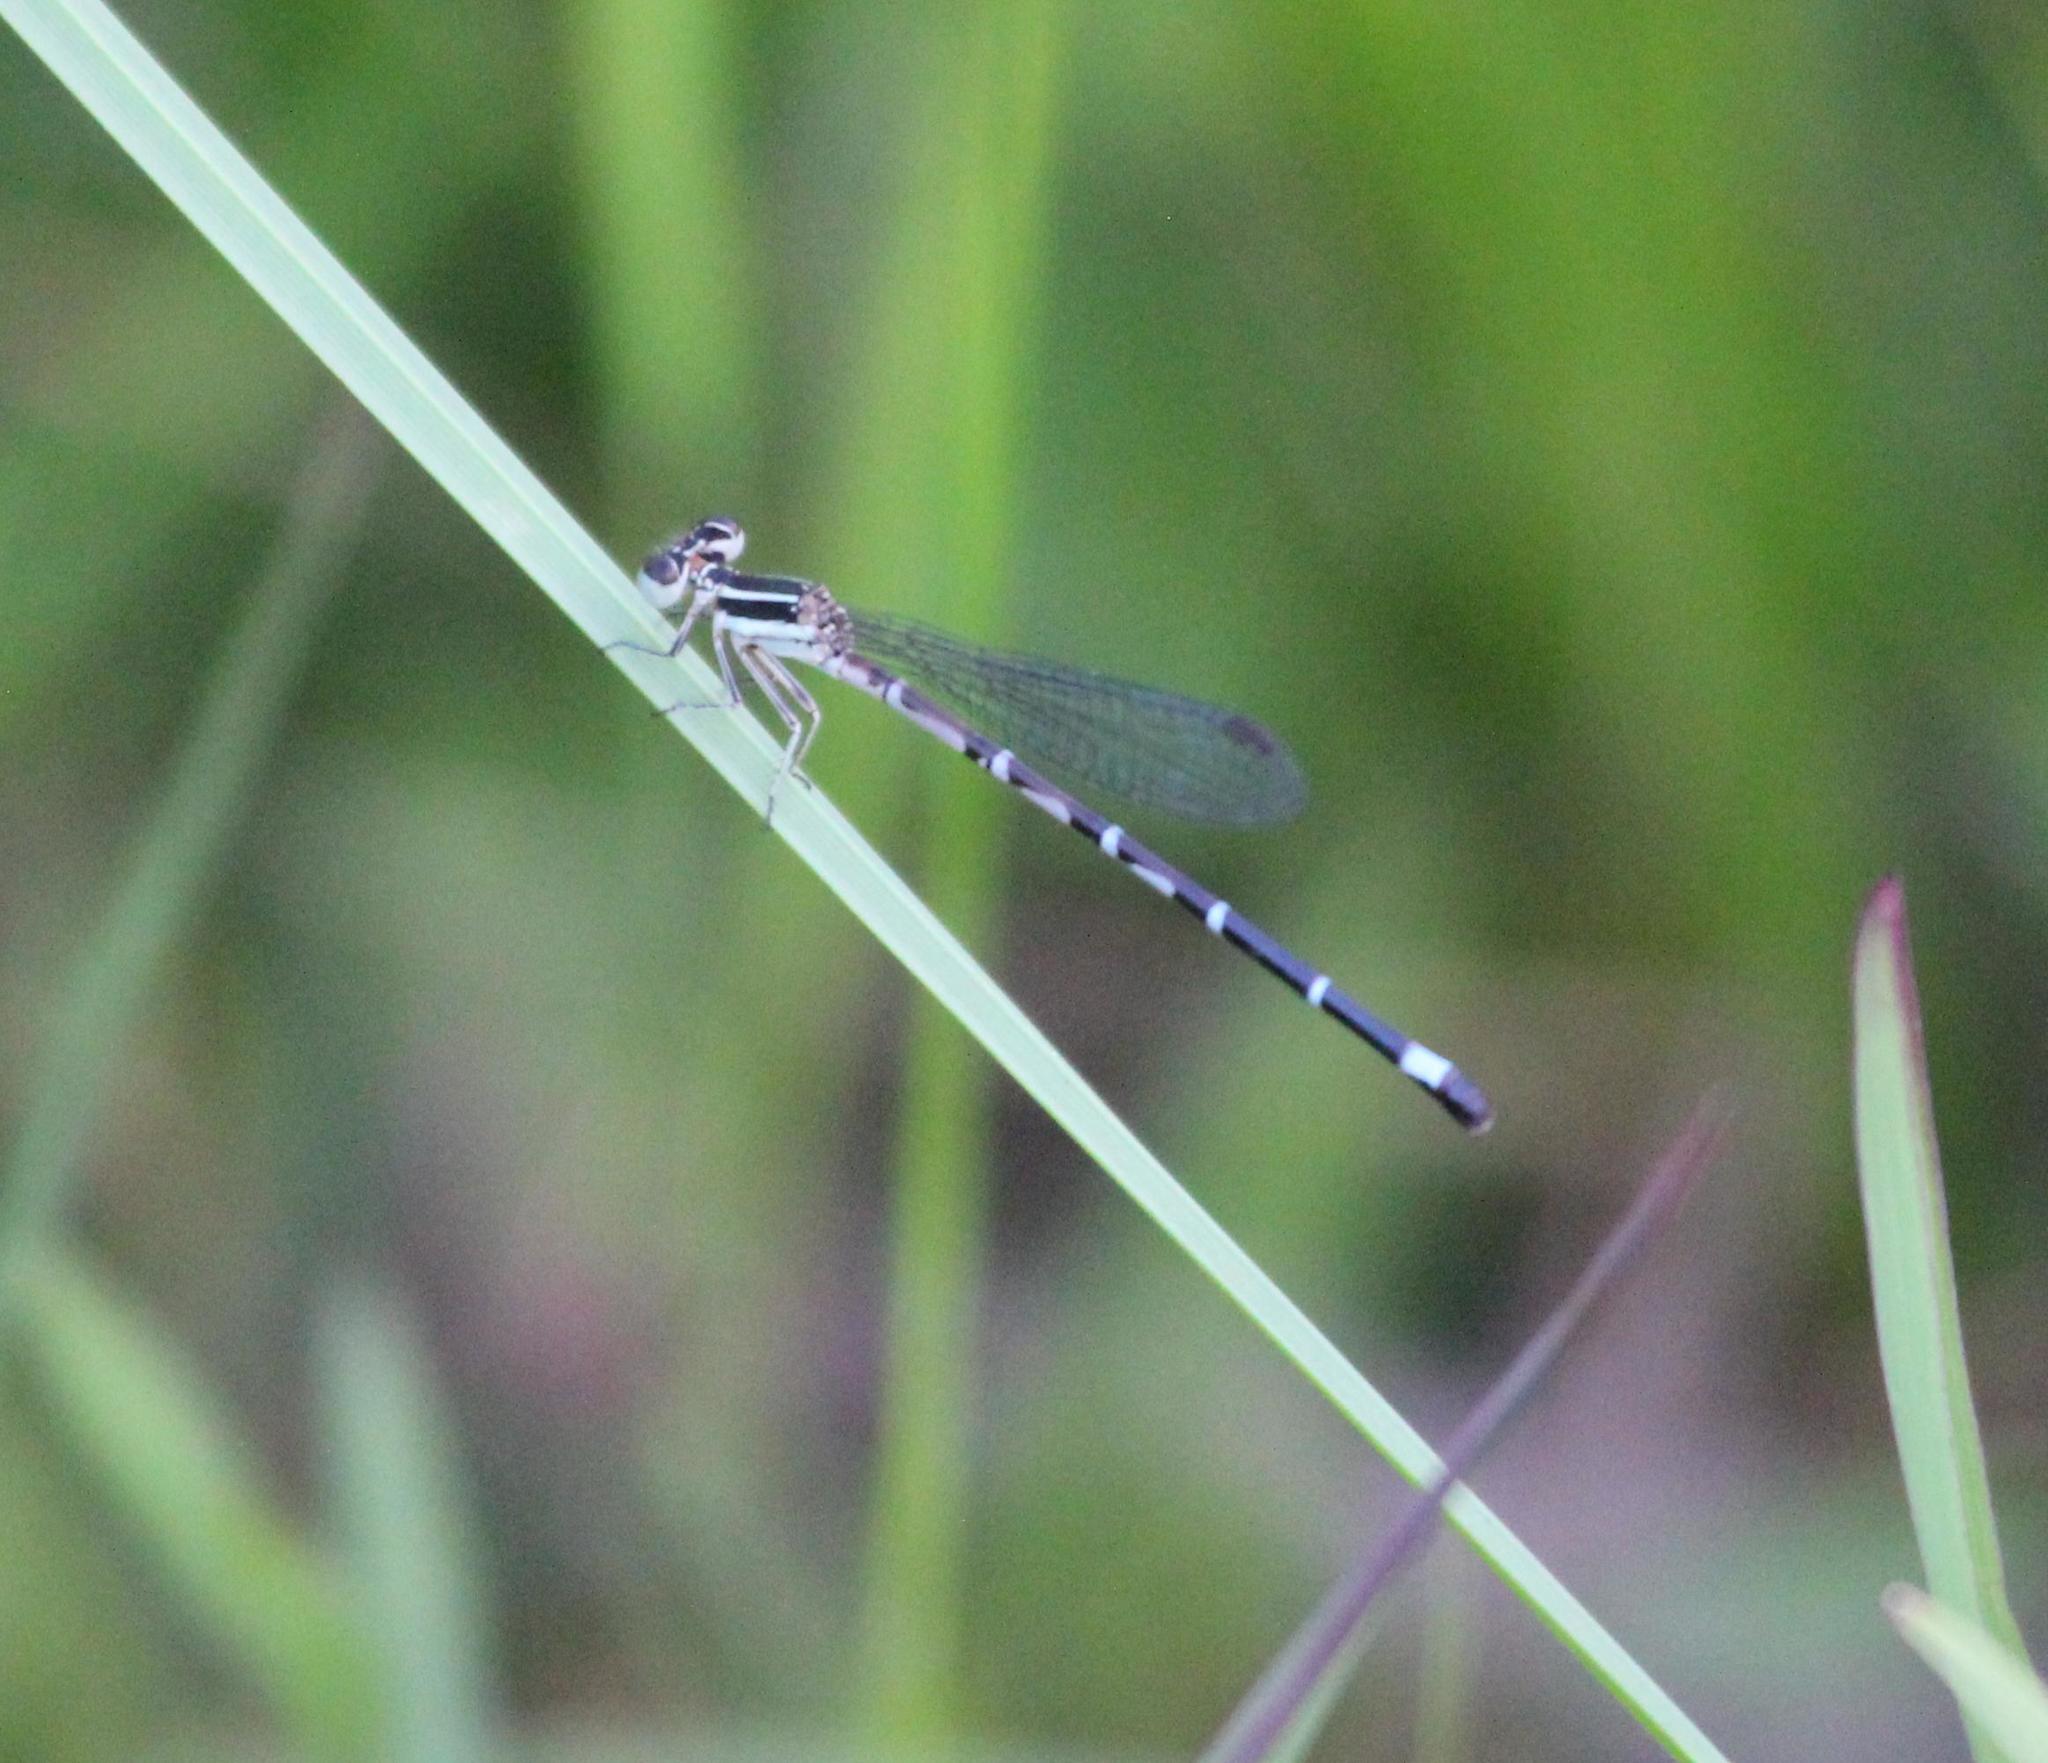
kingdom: Animalia
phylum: Arthropoda
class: Insecta
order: Odonata
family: Coenagrionidae
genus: Argia
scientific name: Argia bipunctulata
